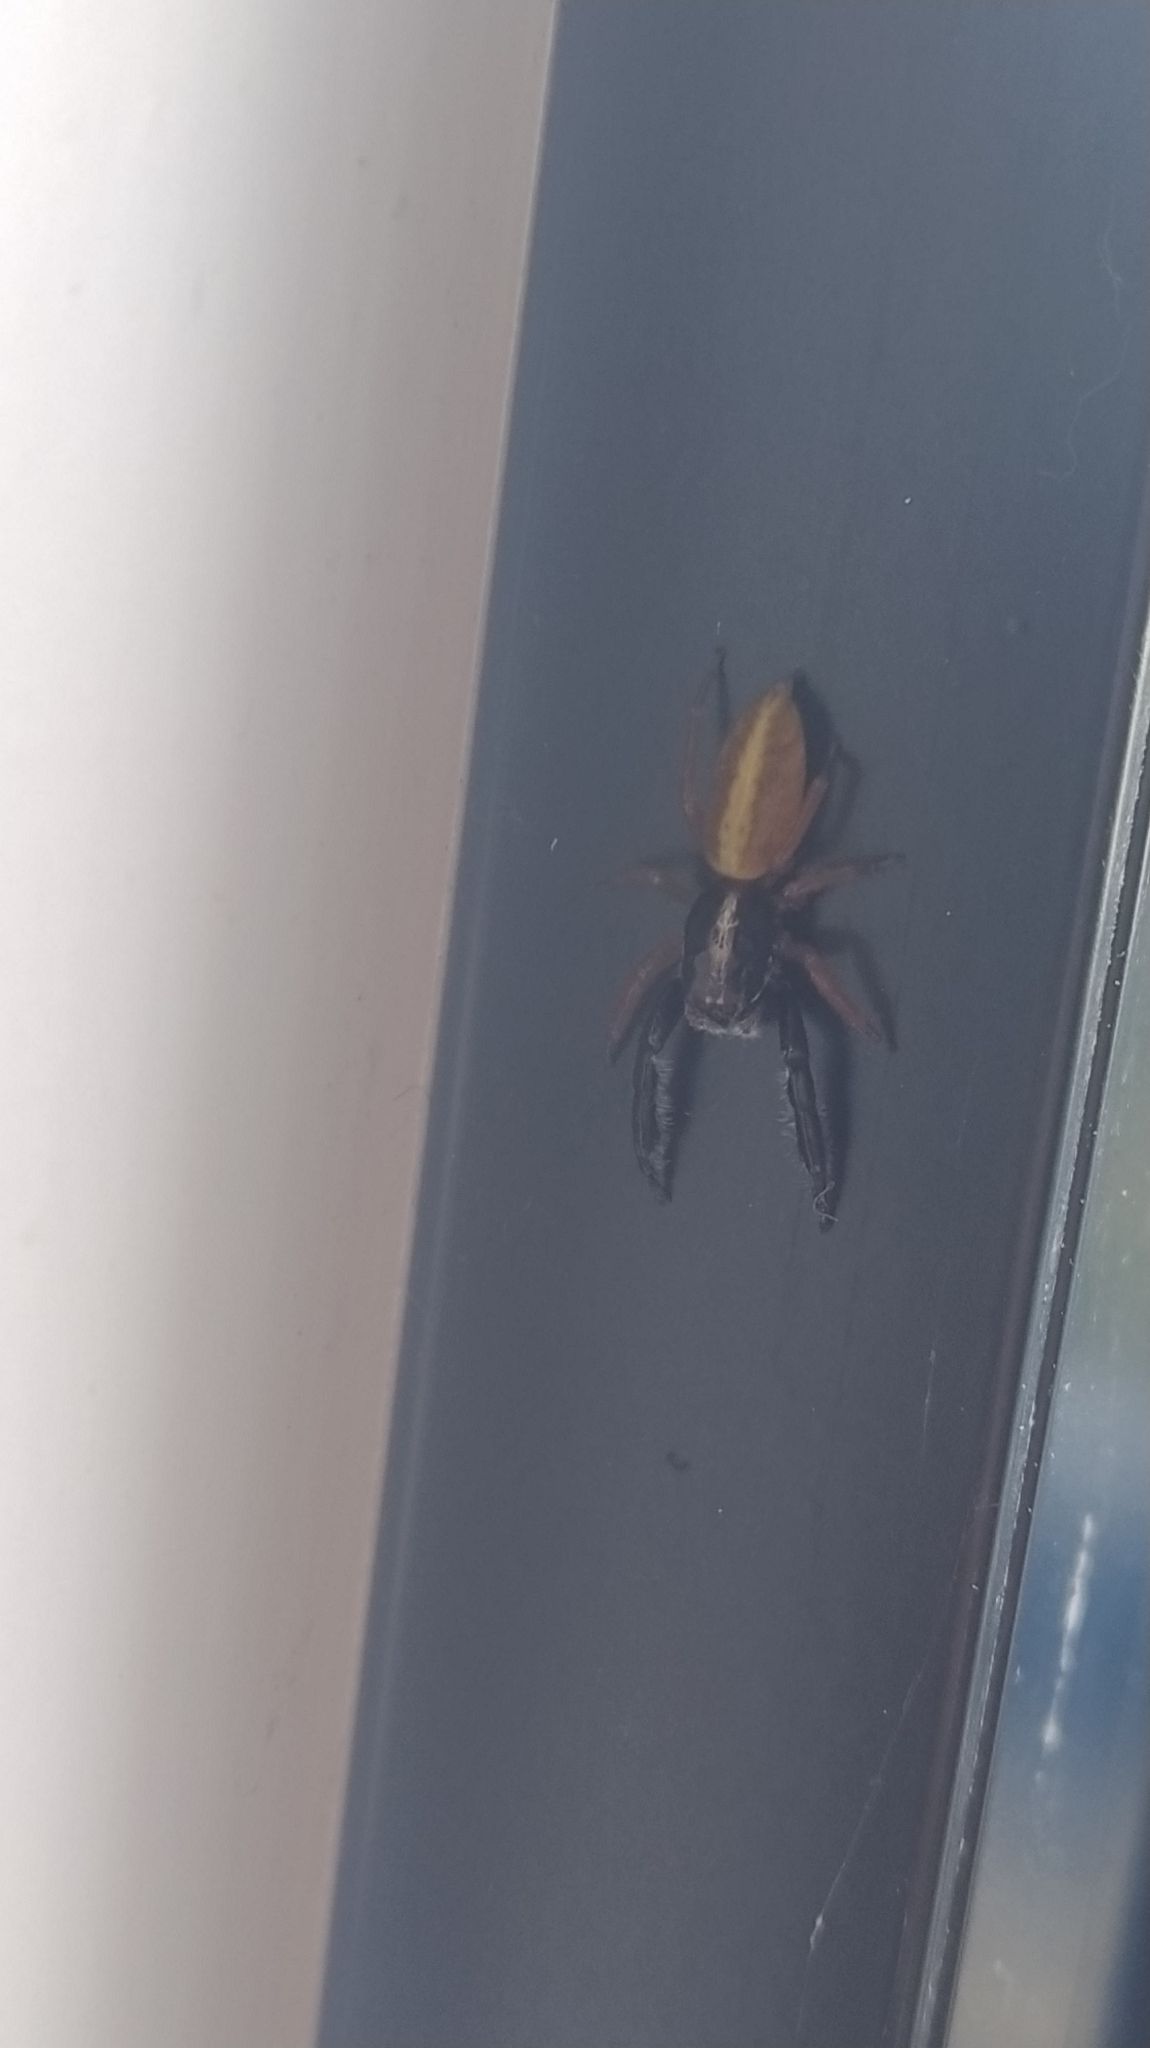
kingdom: Animalia
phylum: Arthropoda
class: Arachnida
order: Araneae
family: Salticidae
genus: Trite
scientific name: Trite planiceps
